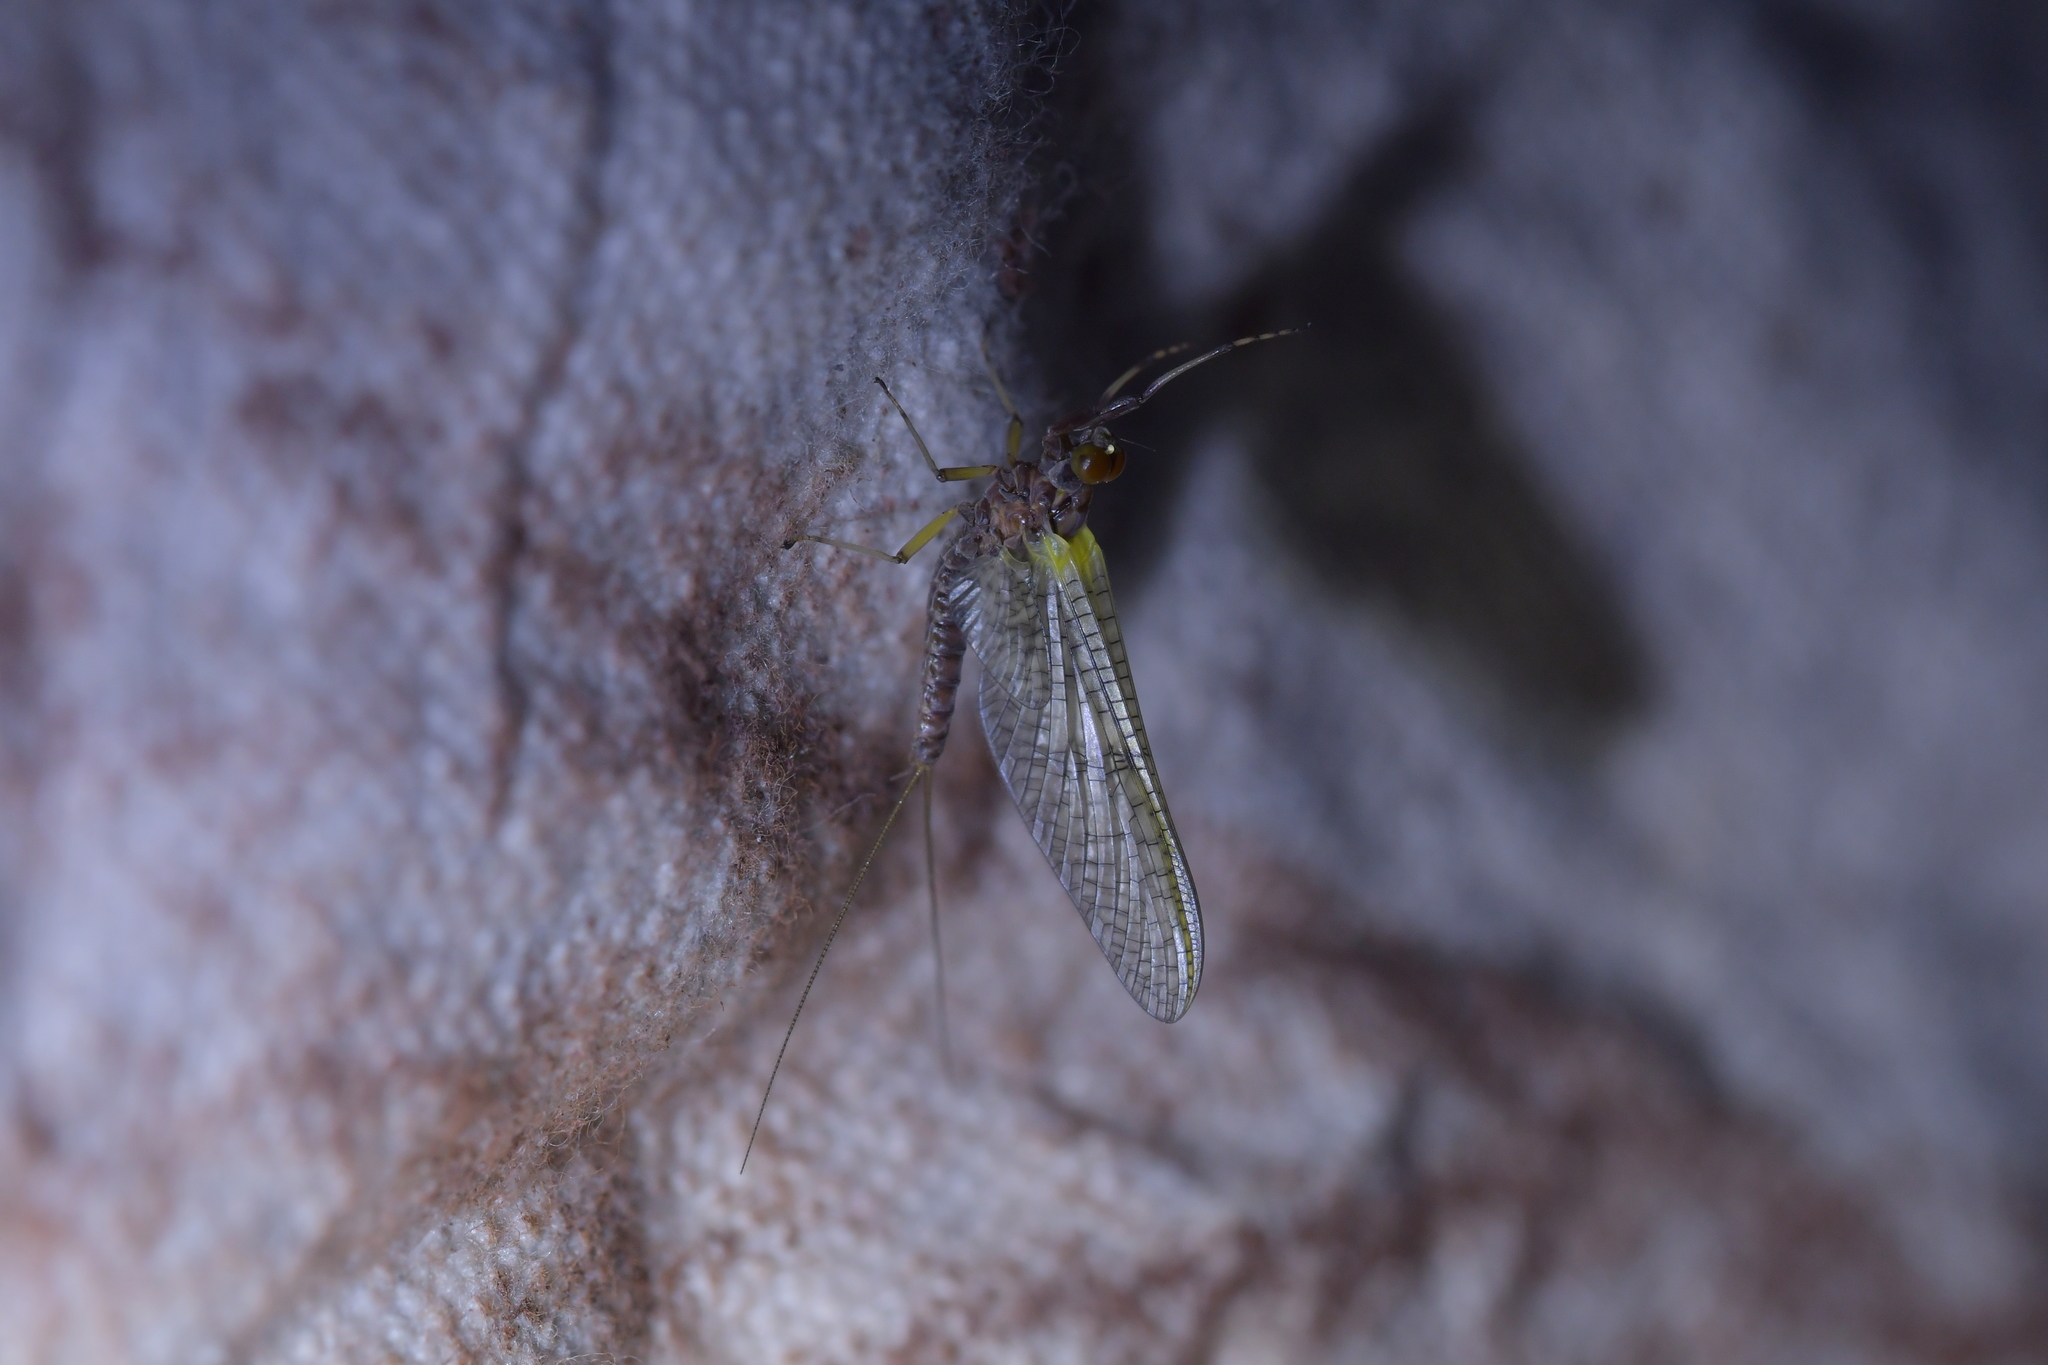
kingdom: Animalia
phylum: Arthropoda
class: Insecta
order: Ephemeroptera
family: Coloburiscidae
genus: Coloburiscus
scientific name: Coloburiscus humeralis
